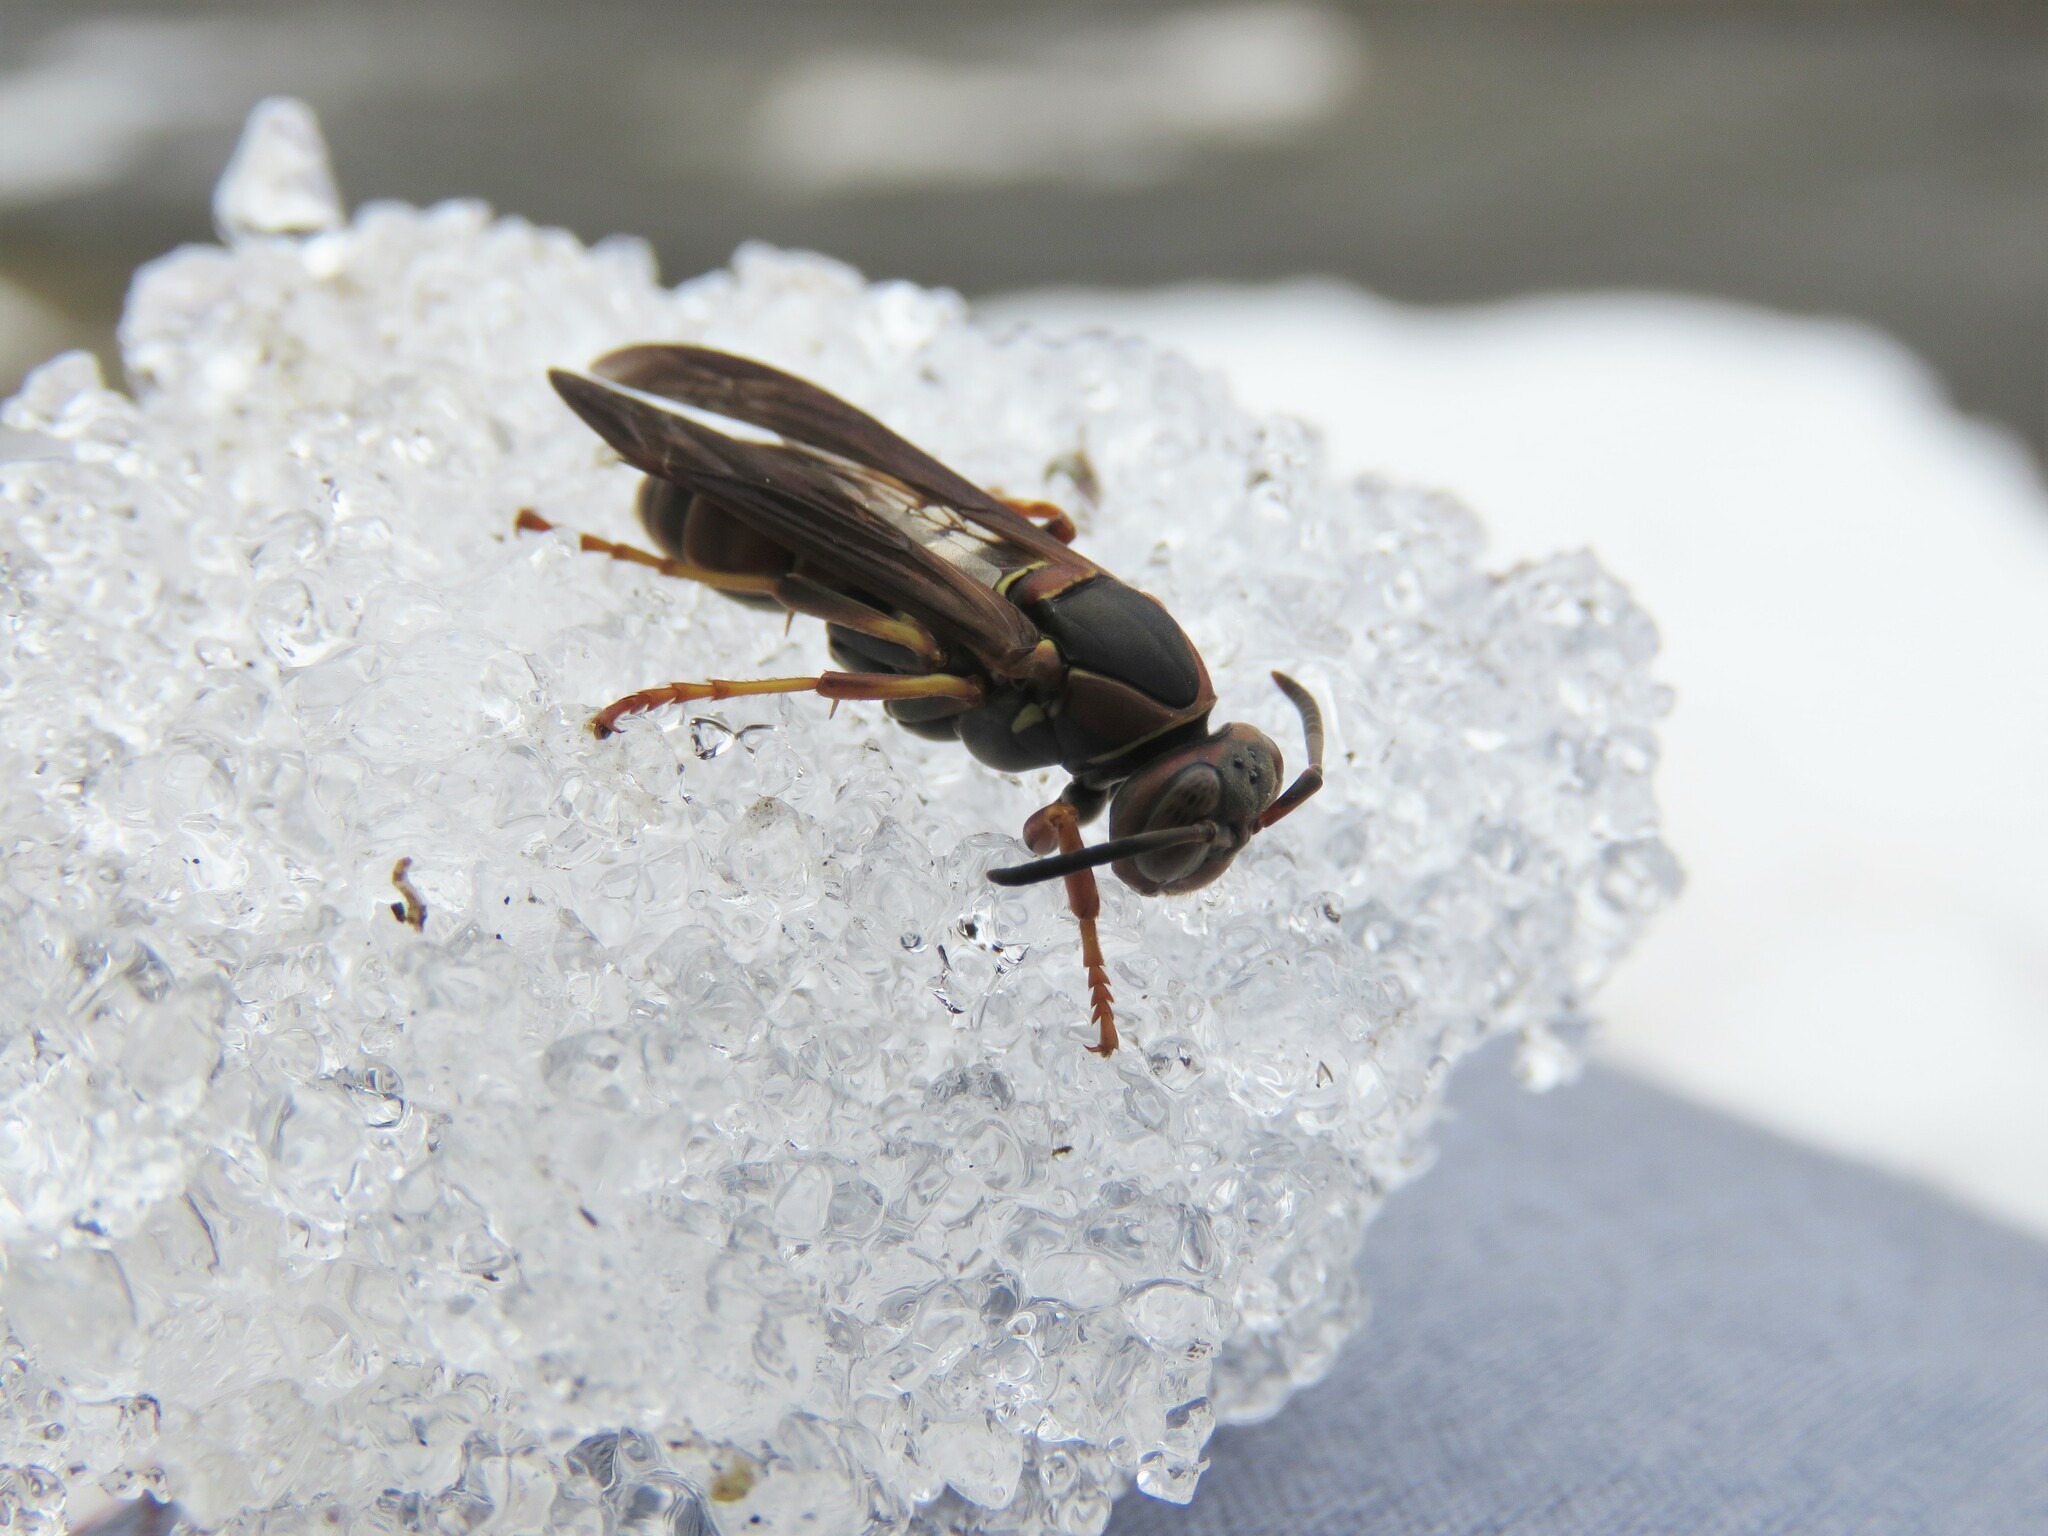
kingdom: Animalia
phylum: Arthropoda
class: Insecta
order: Hymenoptera
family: Eumenidae
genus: Polistes
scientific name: Polistes fuscatus
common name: Dark paper wasp
